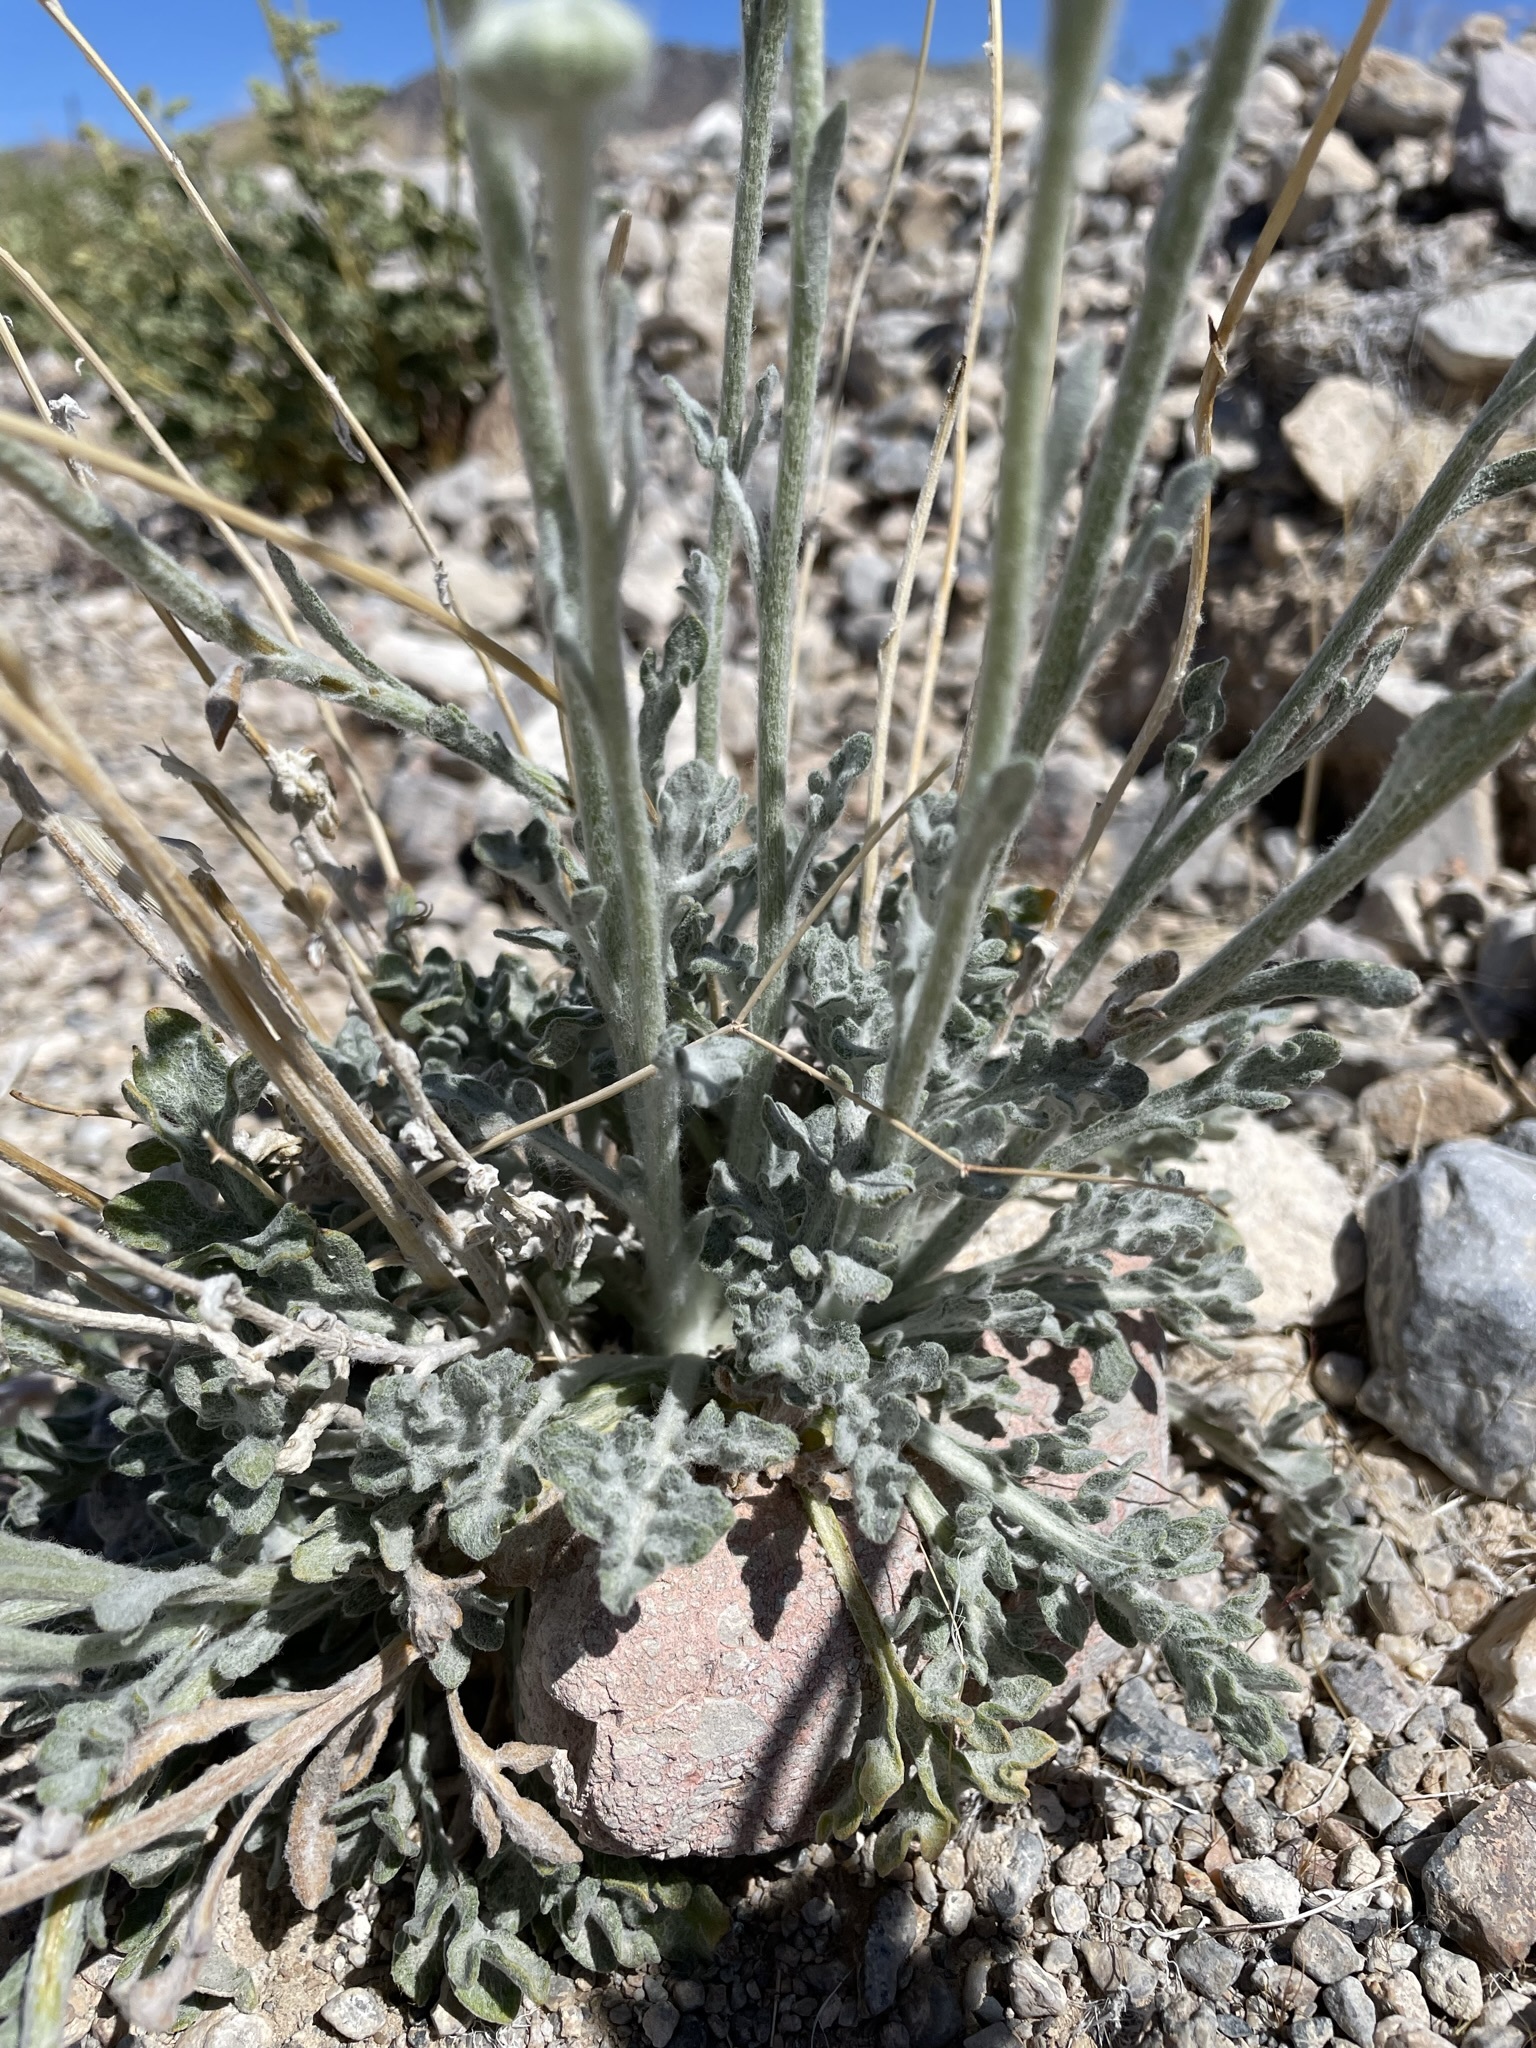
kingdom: Plantae
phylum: Tracheophyta
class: Magnoliopsida
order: Asterales
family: Asteraceae
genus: Baileya
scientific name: Baileya multiradiata
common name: Desert-marigold
